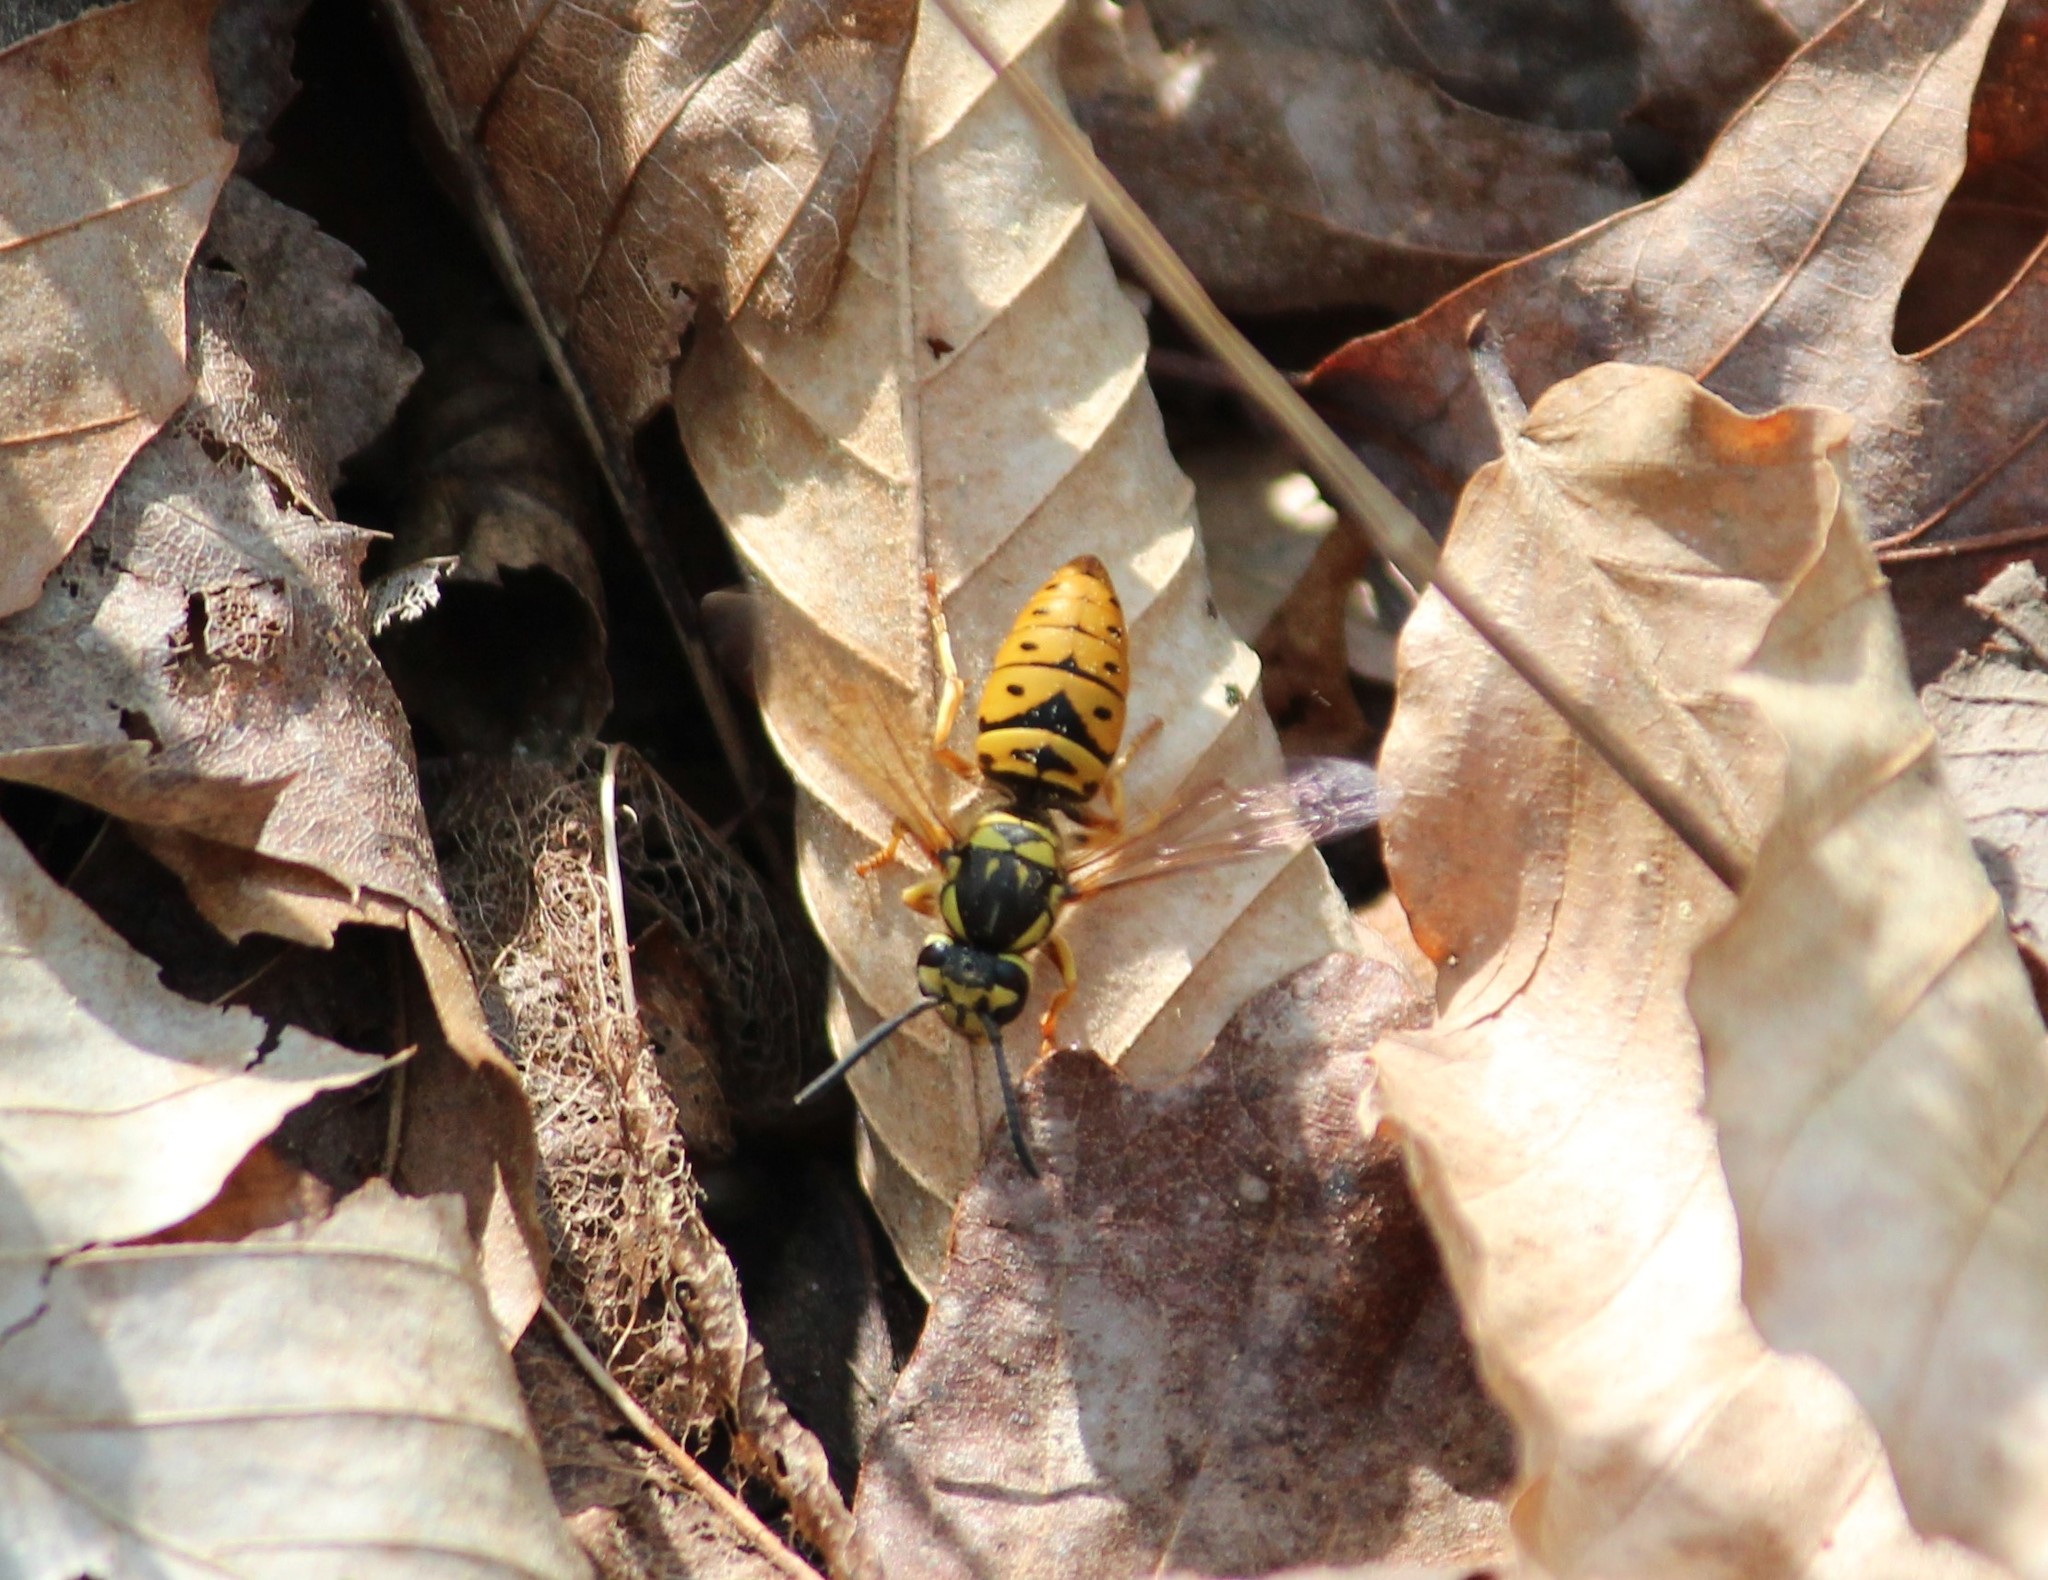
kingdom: Animalia
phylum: Arthropoda
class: Insecta
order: Hymenoptera
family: Vespidae
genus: Vespula
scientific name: Vespula maculifrons
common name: Eastern yellowjacket
